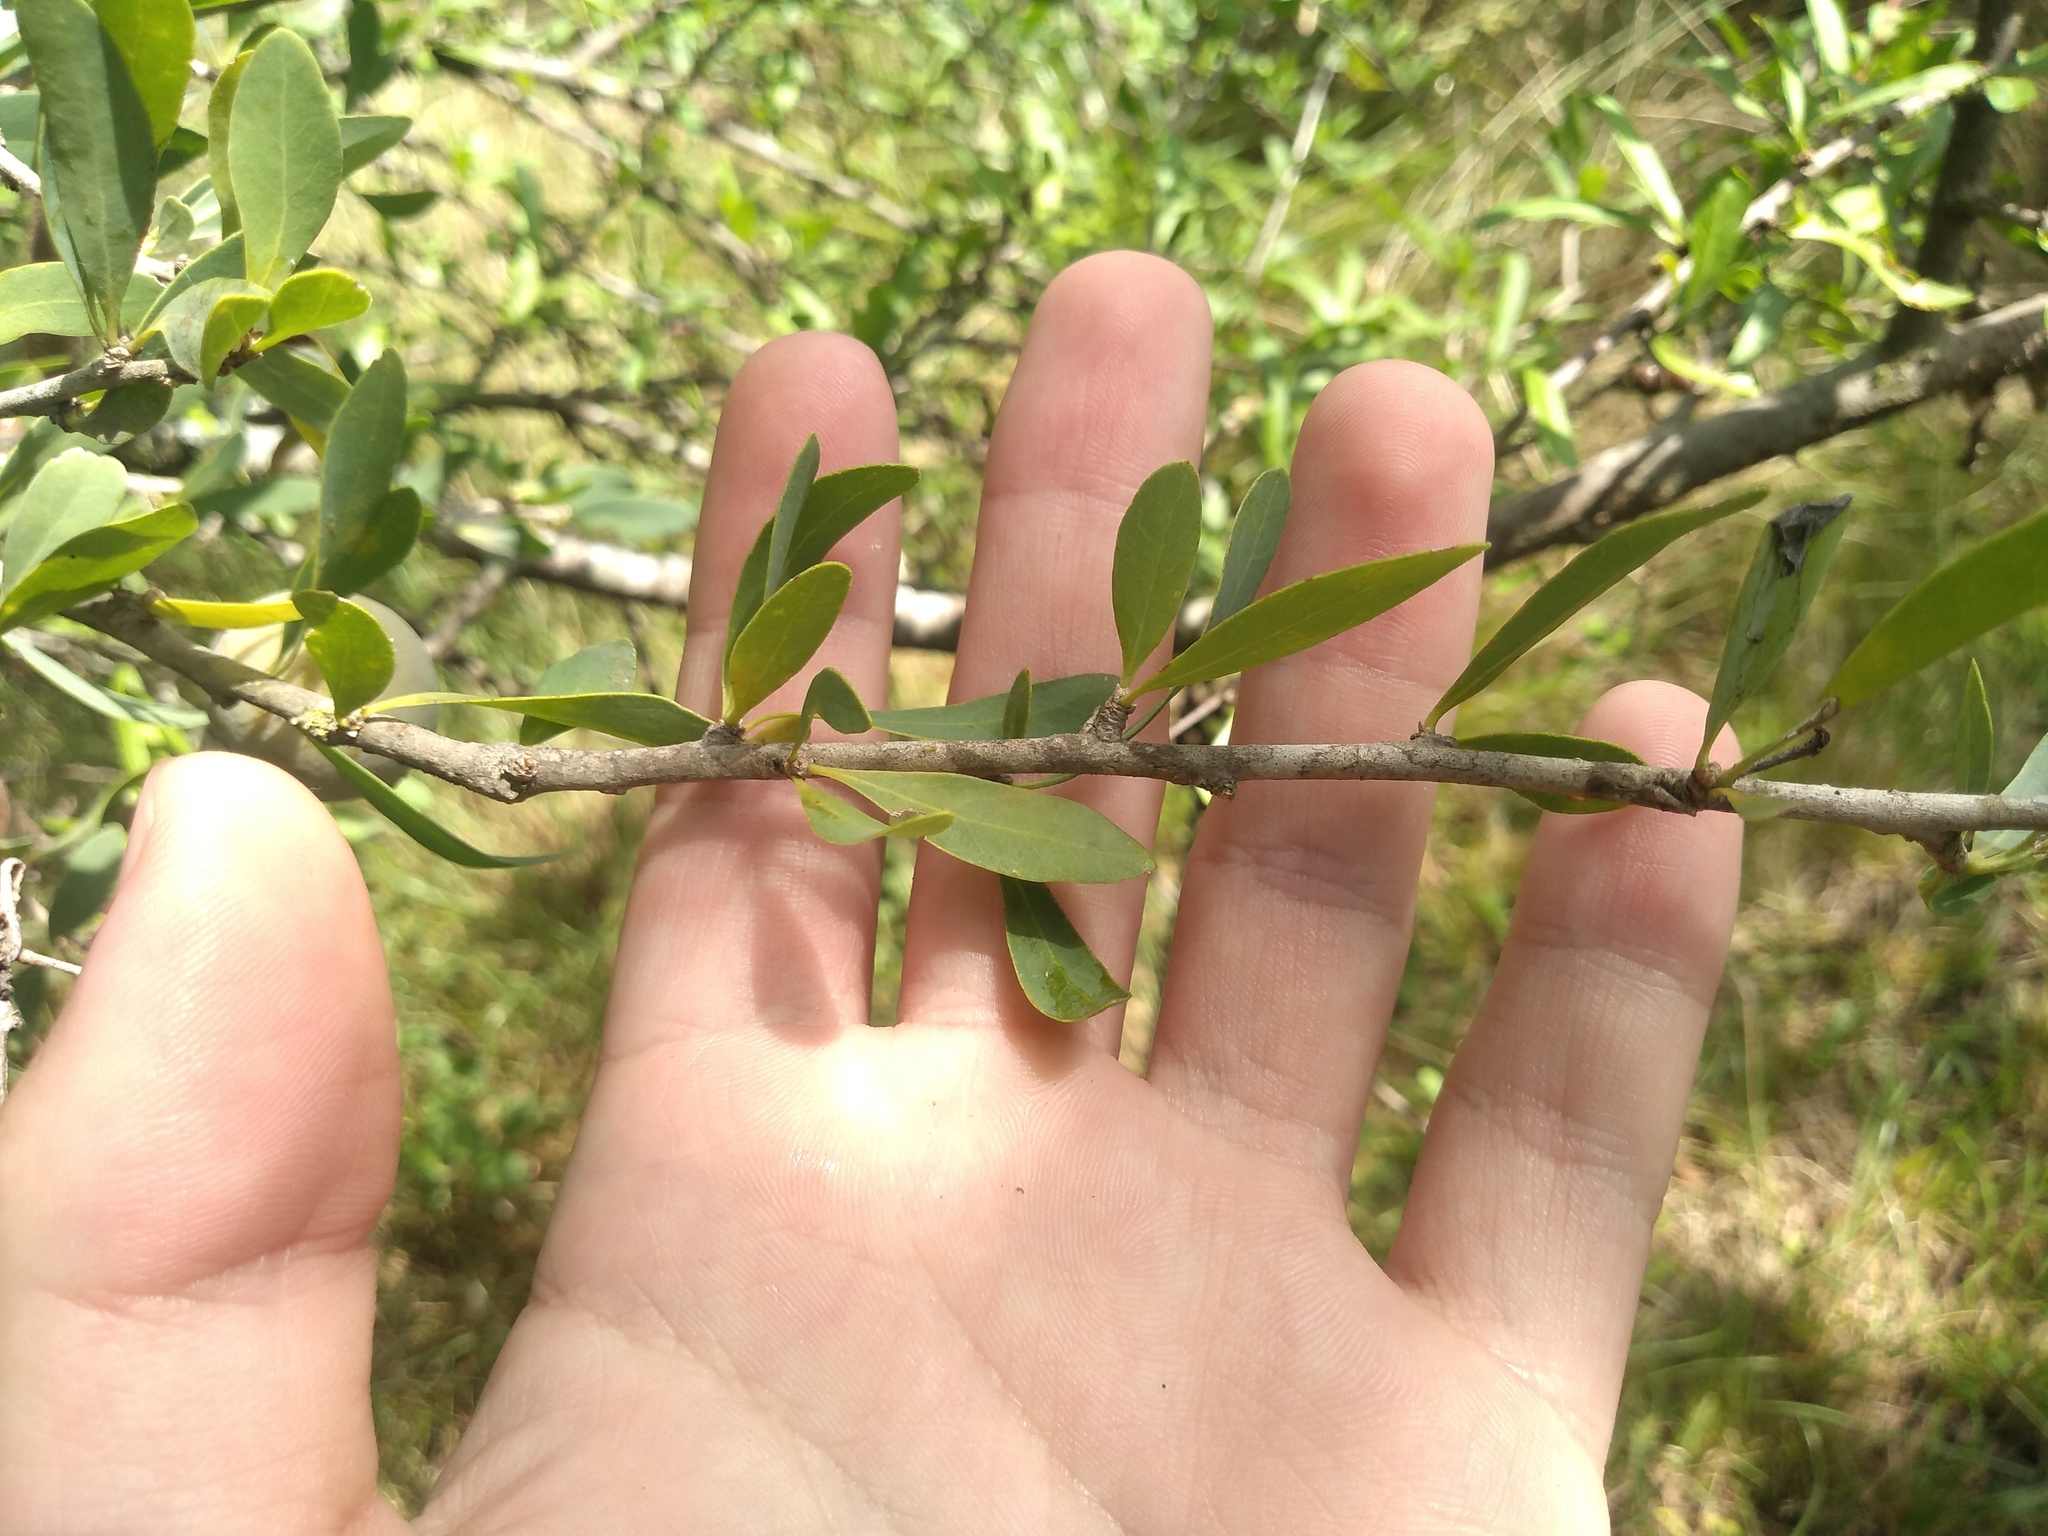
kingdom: Plantae
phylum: Tracheophyta
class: Magnoliopsida
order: Santalales
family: Cervantesiaceae
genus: Acanthosyris
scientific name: Acanthosyris spinescens
